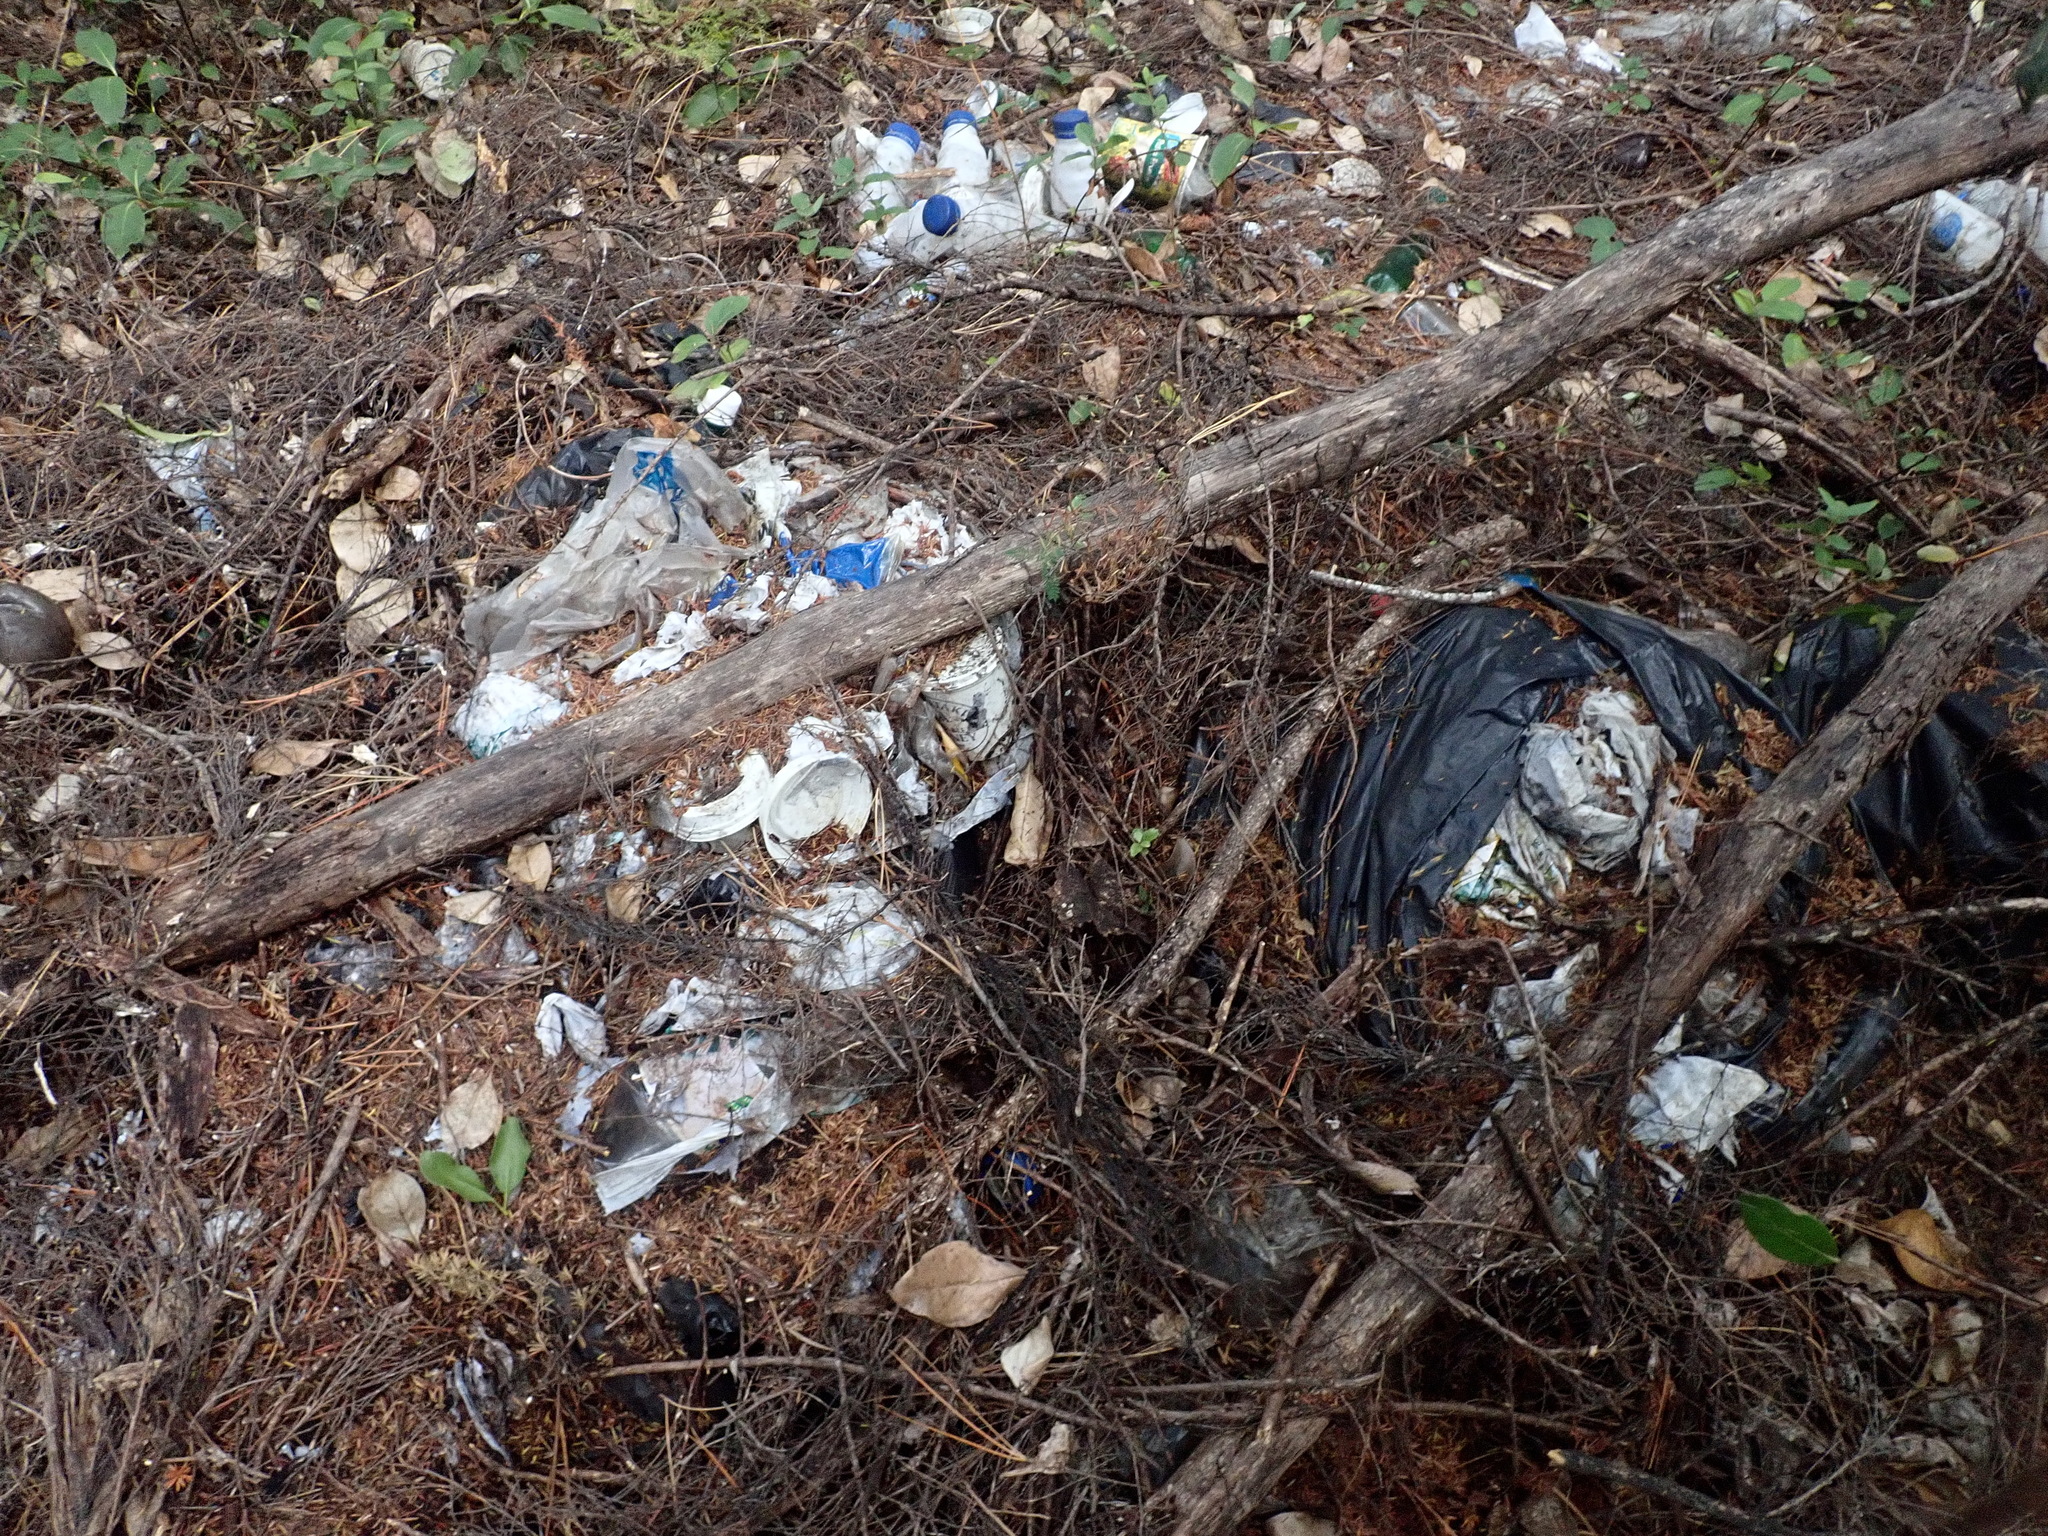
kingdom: Plantae
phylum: Tracheophyta
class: Pinopsida
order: Pinales
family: Pinaceae
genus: Pinus
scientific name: Pinus radiata
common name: Monterey pine
